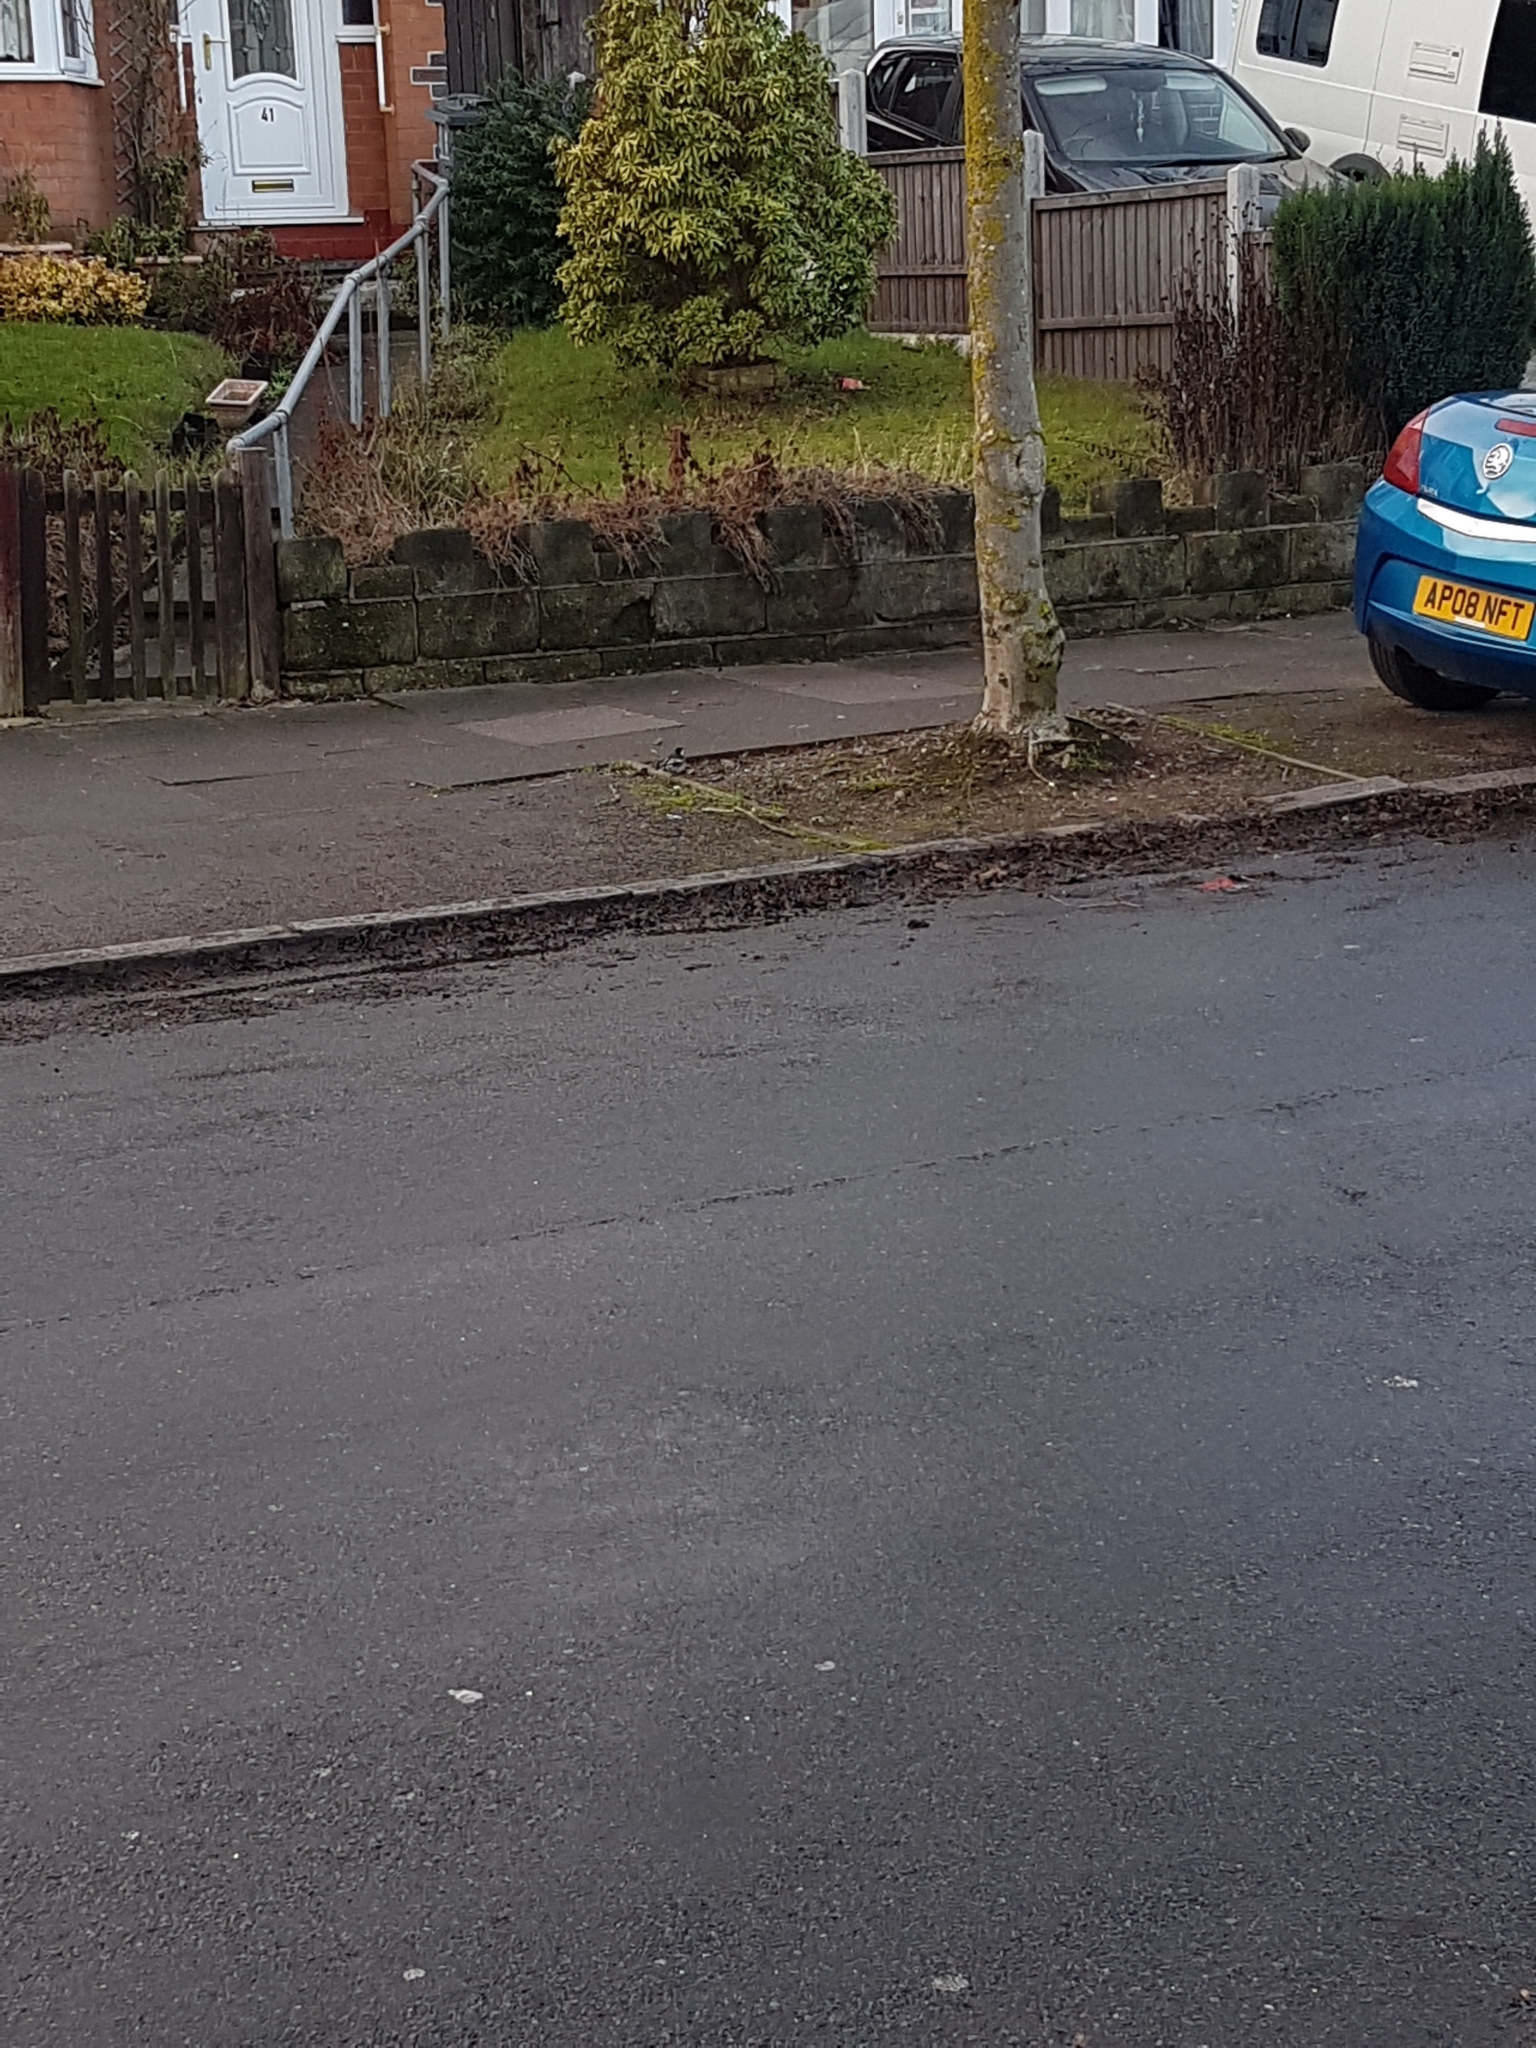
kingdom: Animalia
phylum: Chordata
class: Aves
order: Passeriformes
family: Motacillidae
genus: Motacilla
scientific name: Motacilla alba
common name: White wagtail
